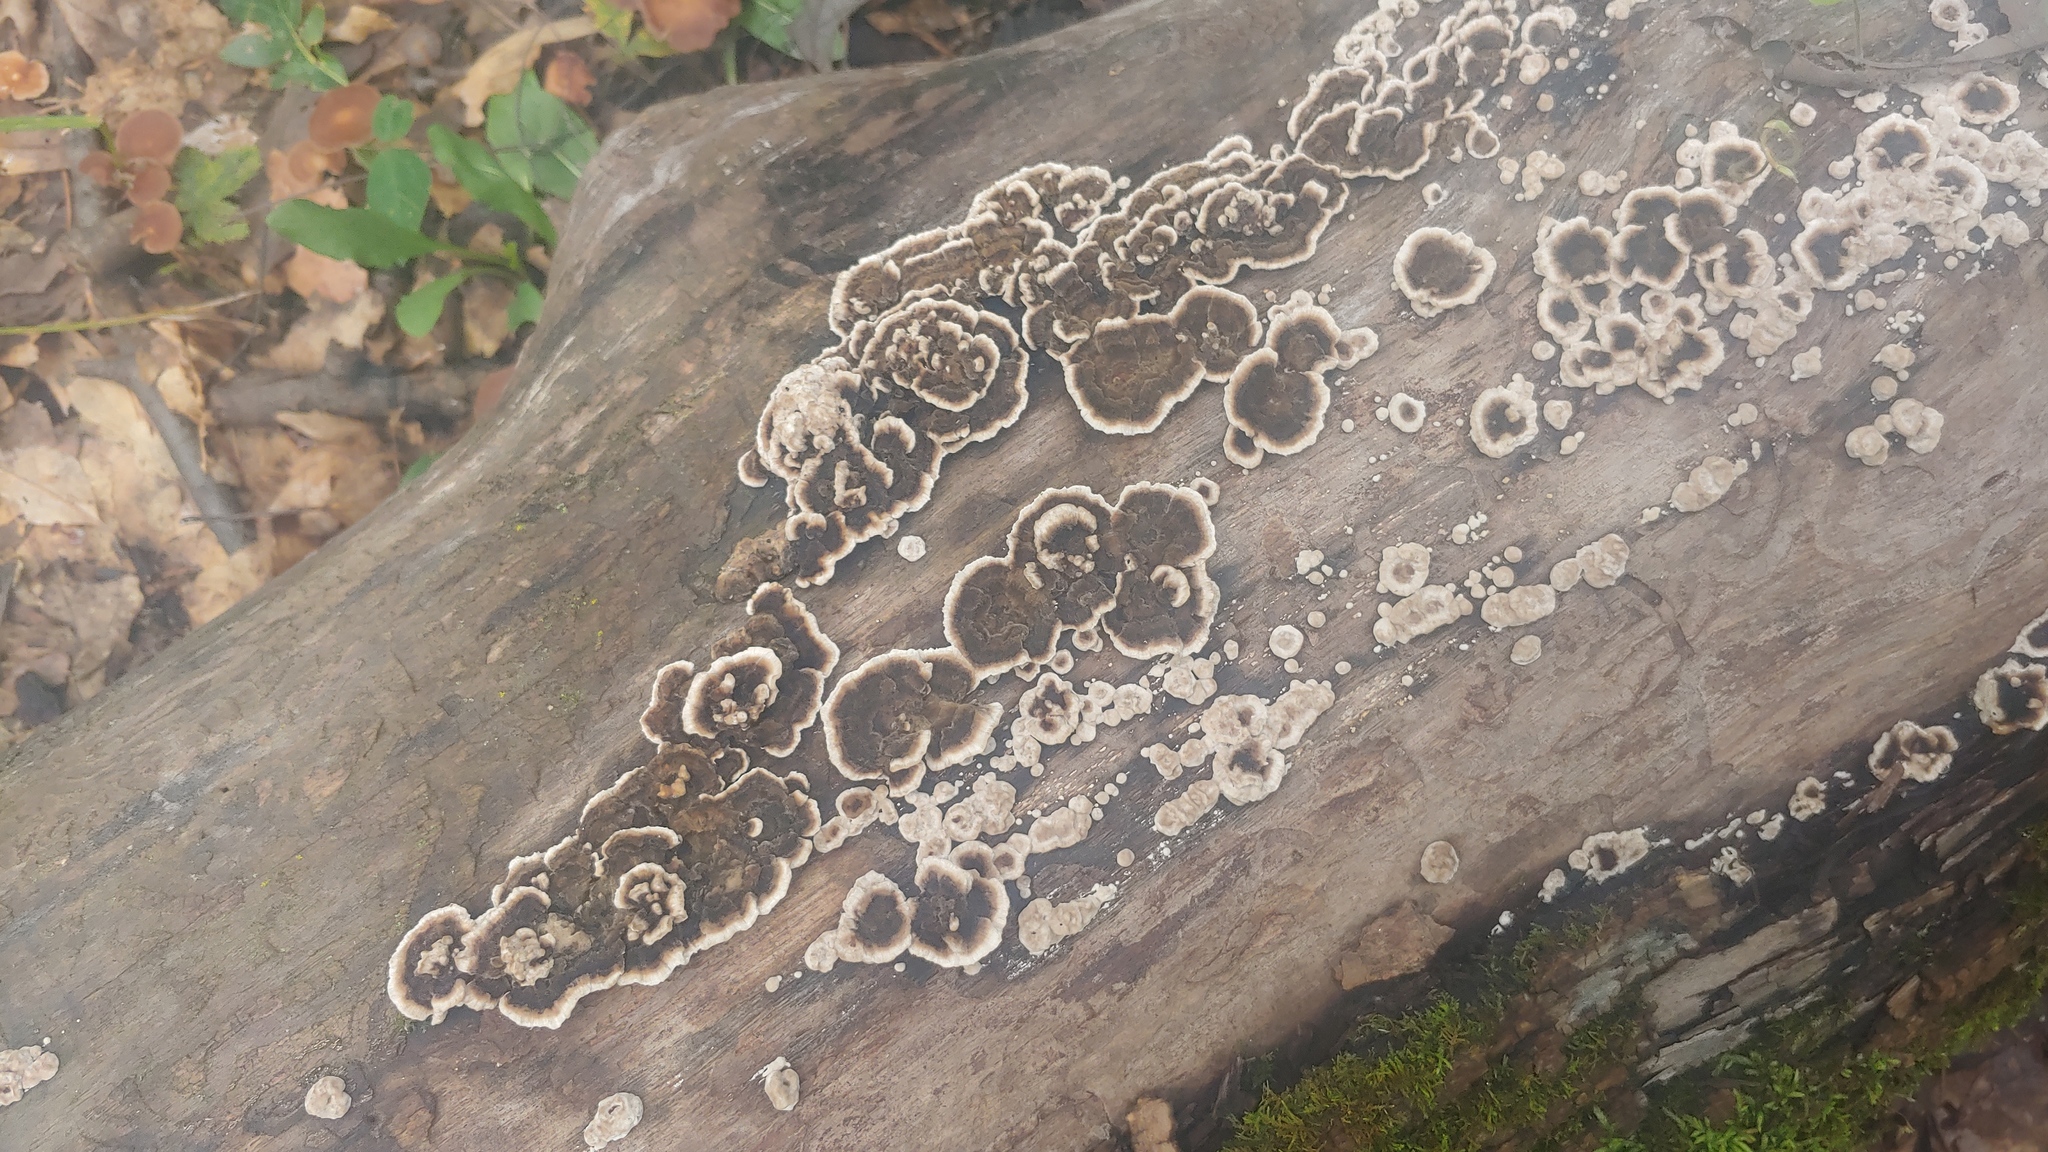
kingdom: Fungi
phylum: Basidiomycota
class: Agaricomycetes
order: Russulales
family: Peniophoraceae
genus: Peniophora
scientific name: Peniophora albobadia
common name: Giraffe spots
